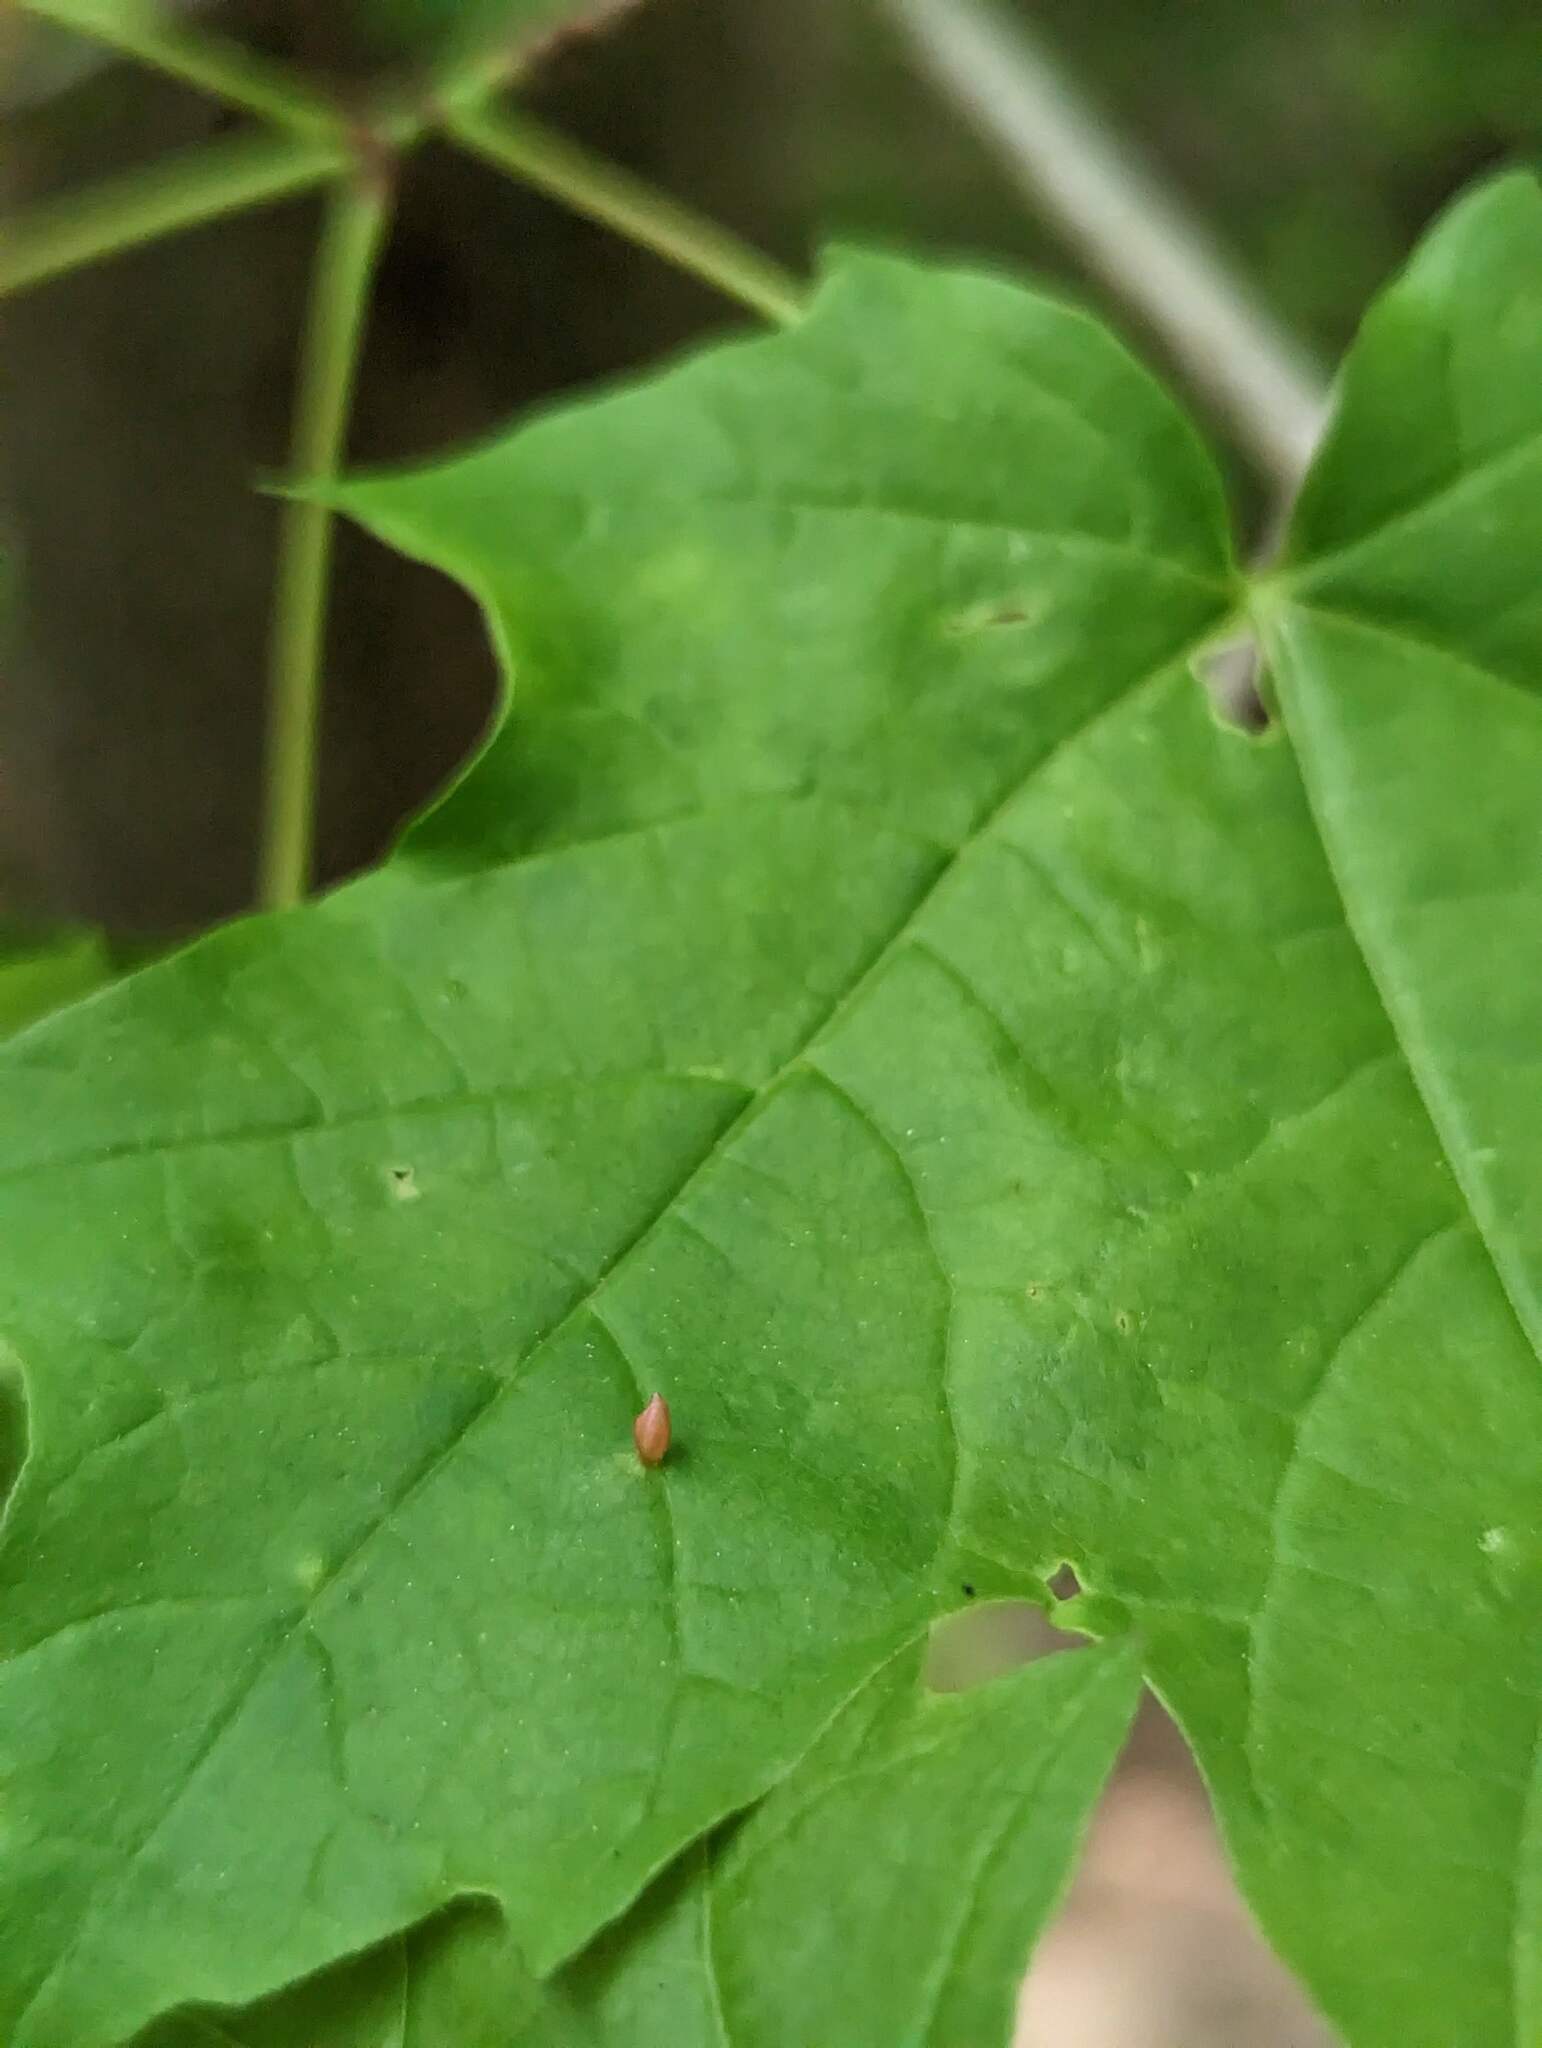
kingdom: Animalia
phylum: Arthropoda
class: Arachnida
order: Trombidiformes
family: Eriophyidae
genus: Vasates
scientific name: Vasates aceriscrumena
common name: Maple spindle gall mite
